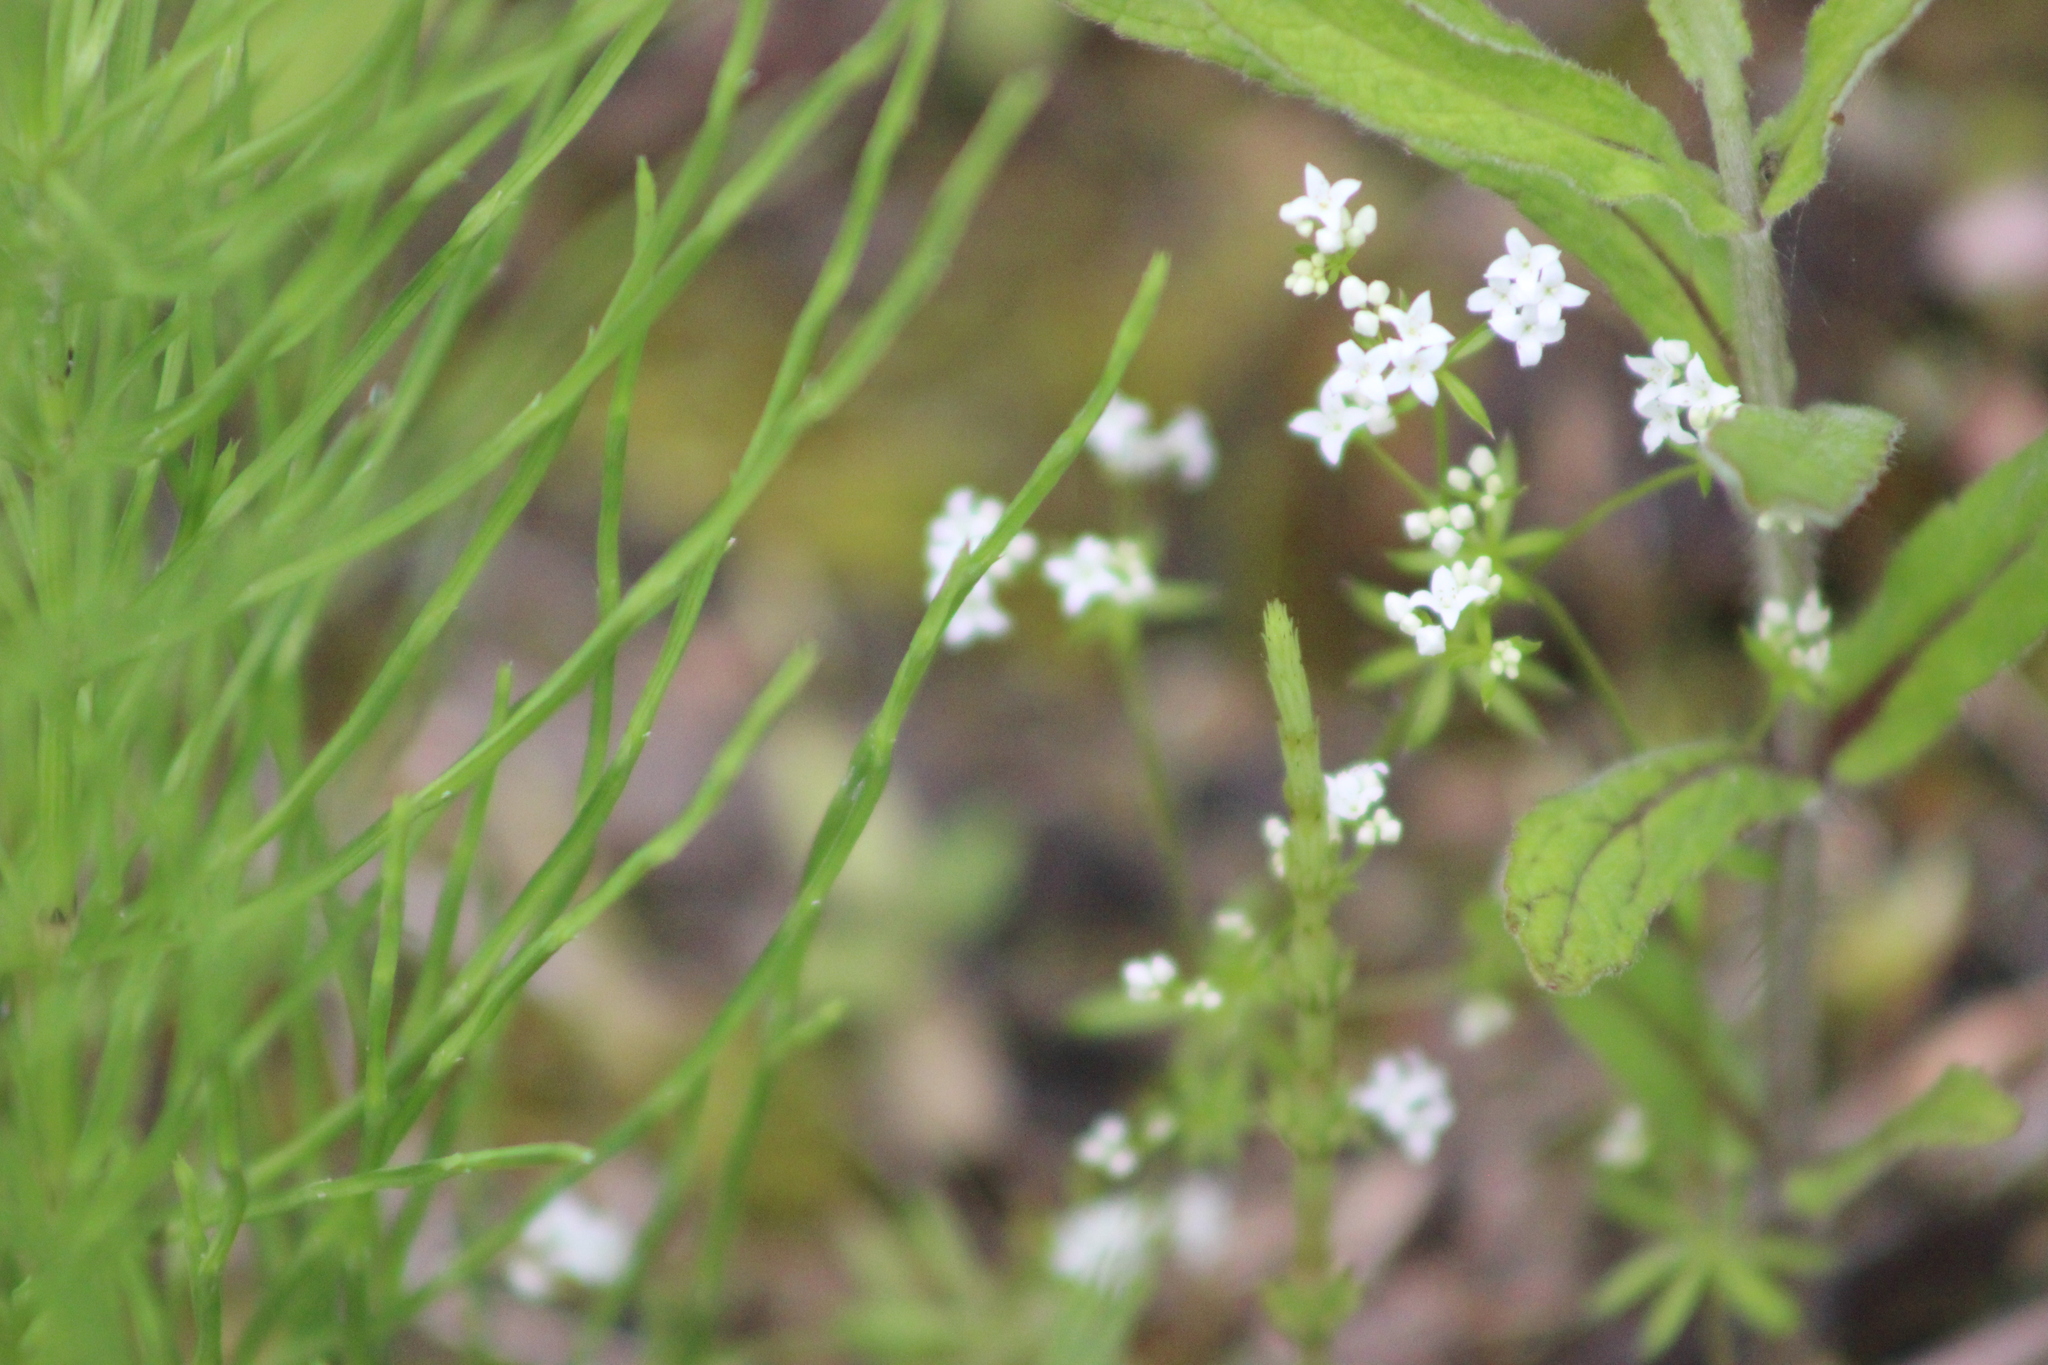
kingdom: Plantae
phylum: Tracheophyta
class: Magnoliopsida
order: Gentianales
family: Rubiaceae
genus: Galium
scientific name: Galium palustre
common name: Common marsh-bedstraw
